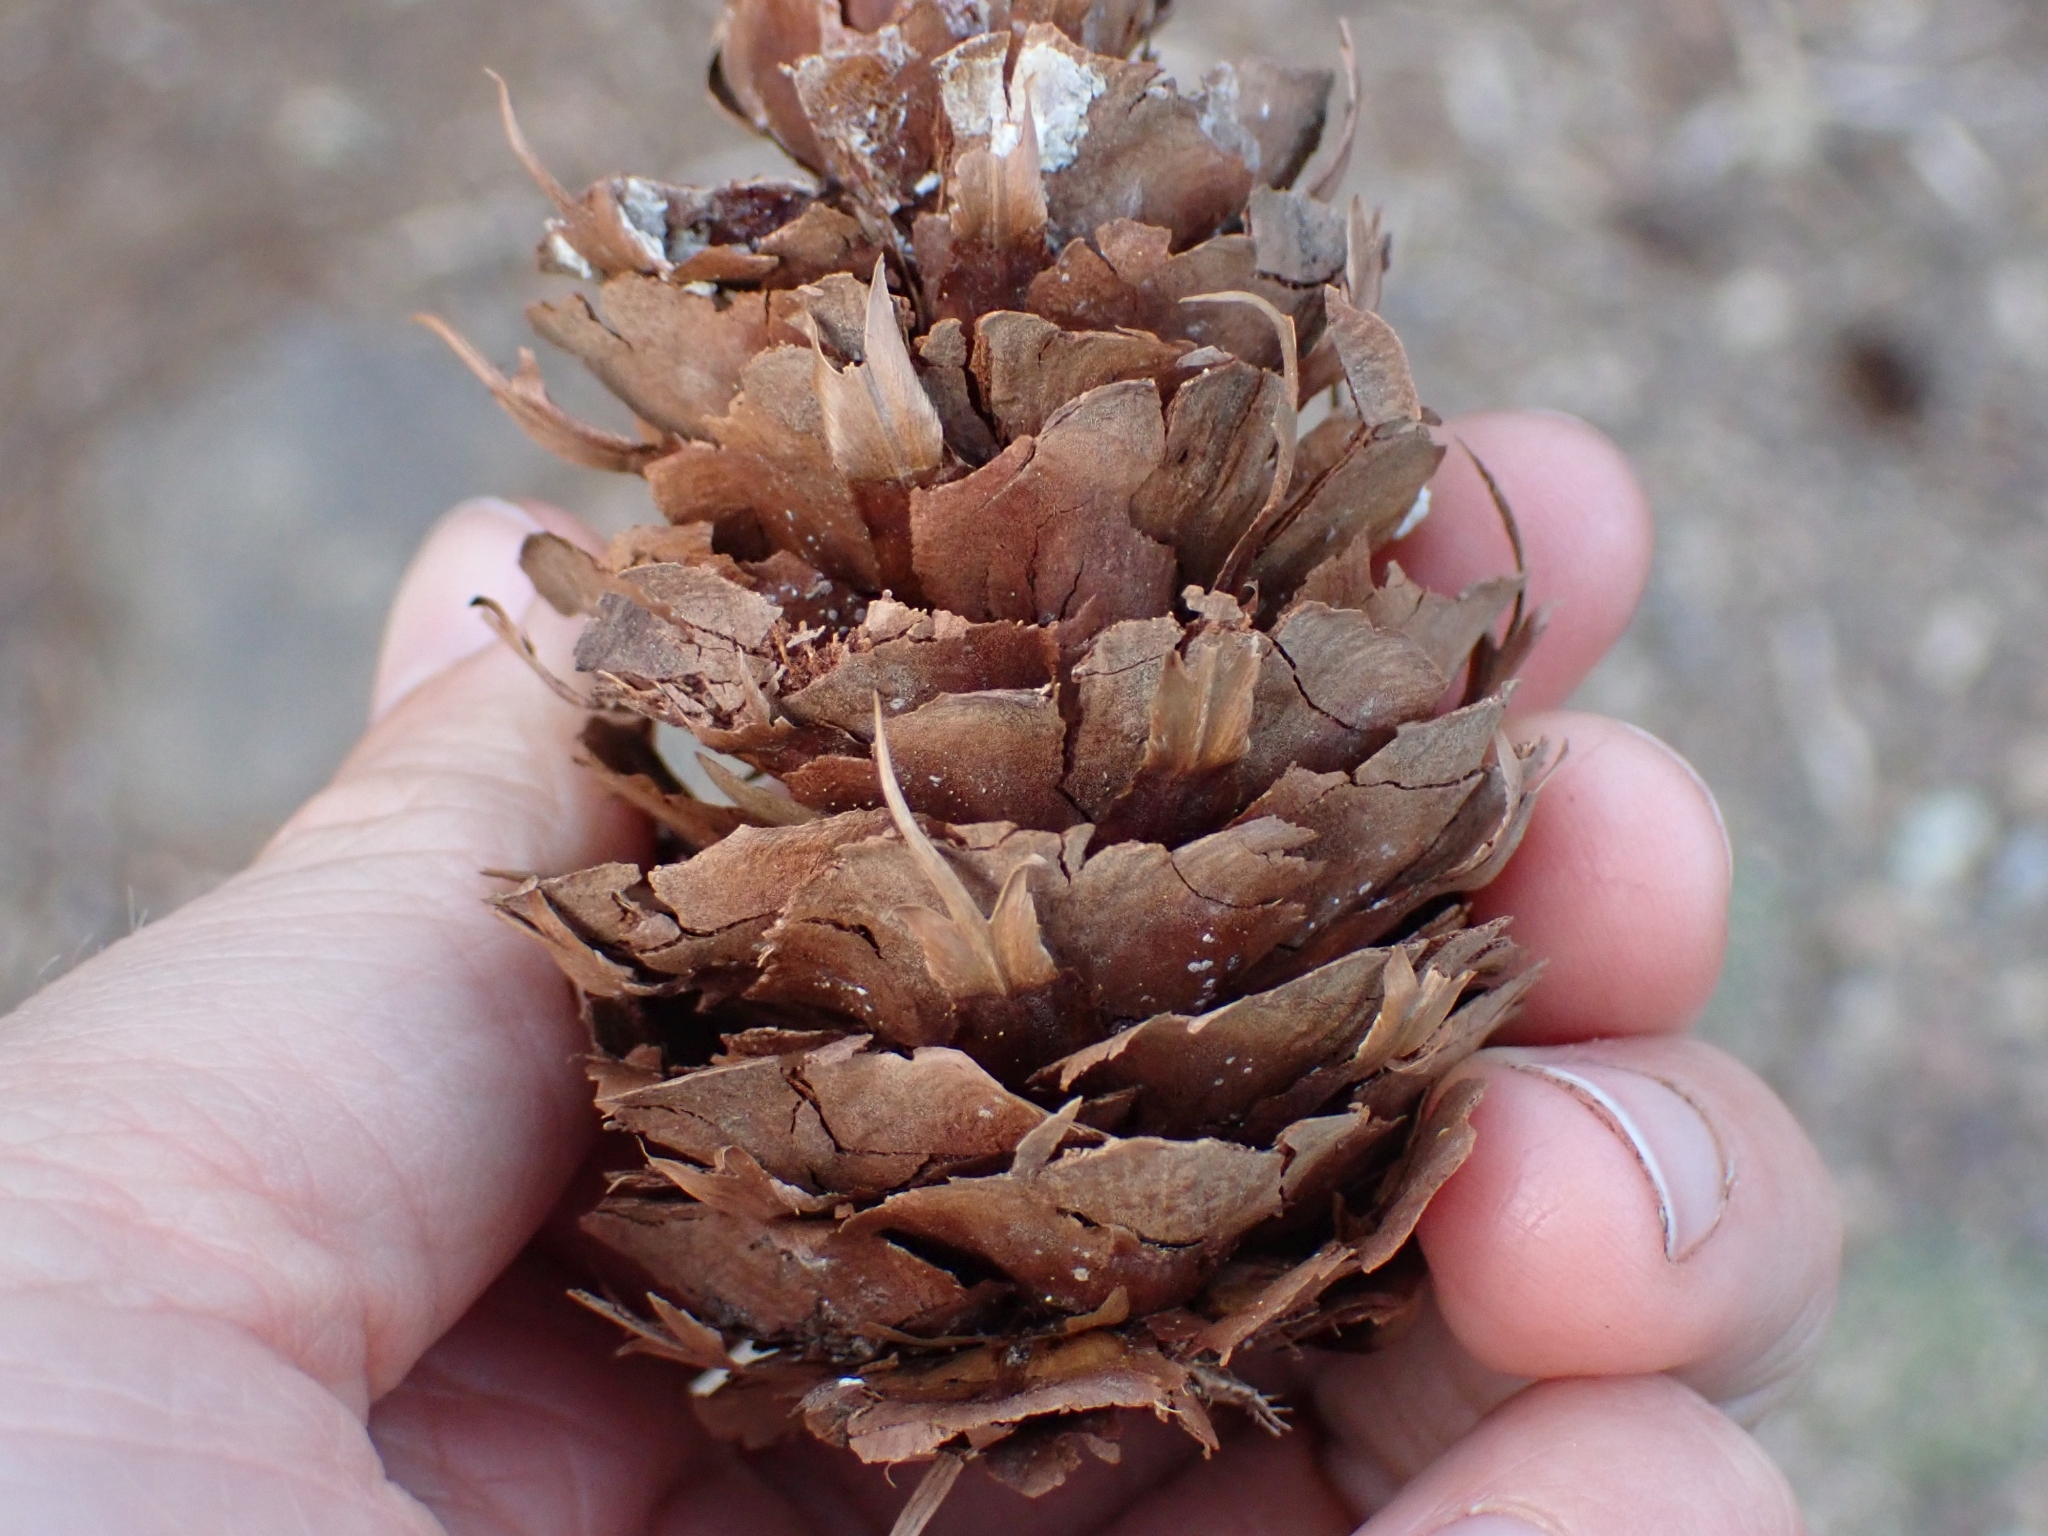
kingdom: Plantae
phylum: Tracheophyta
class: Pinopsida
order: Pinales
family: Pinaceae
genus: Pseudotsuga
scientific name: Pseudotsuga menziesii
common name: Douglas fir
